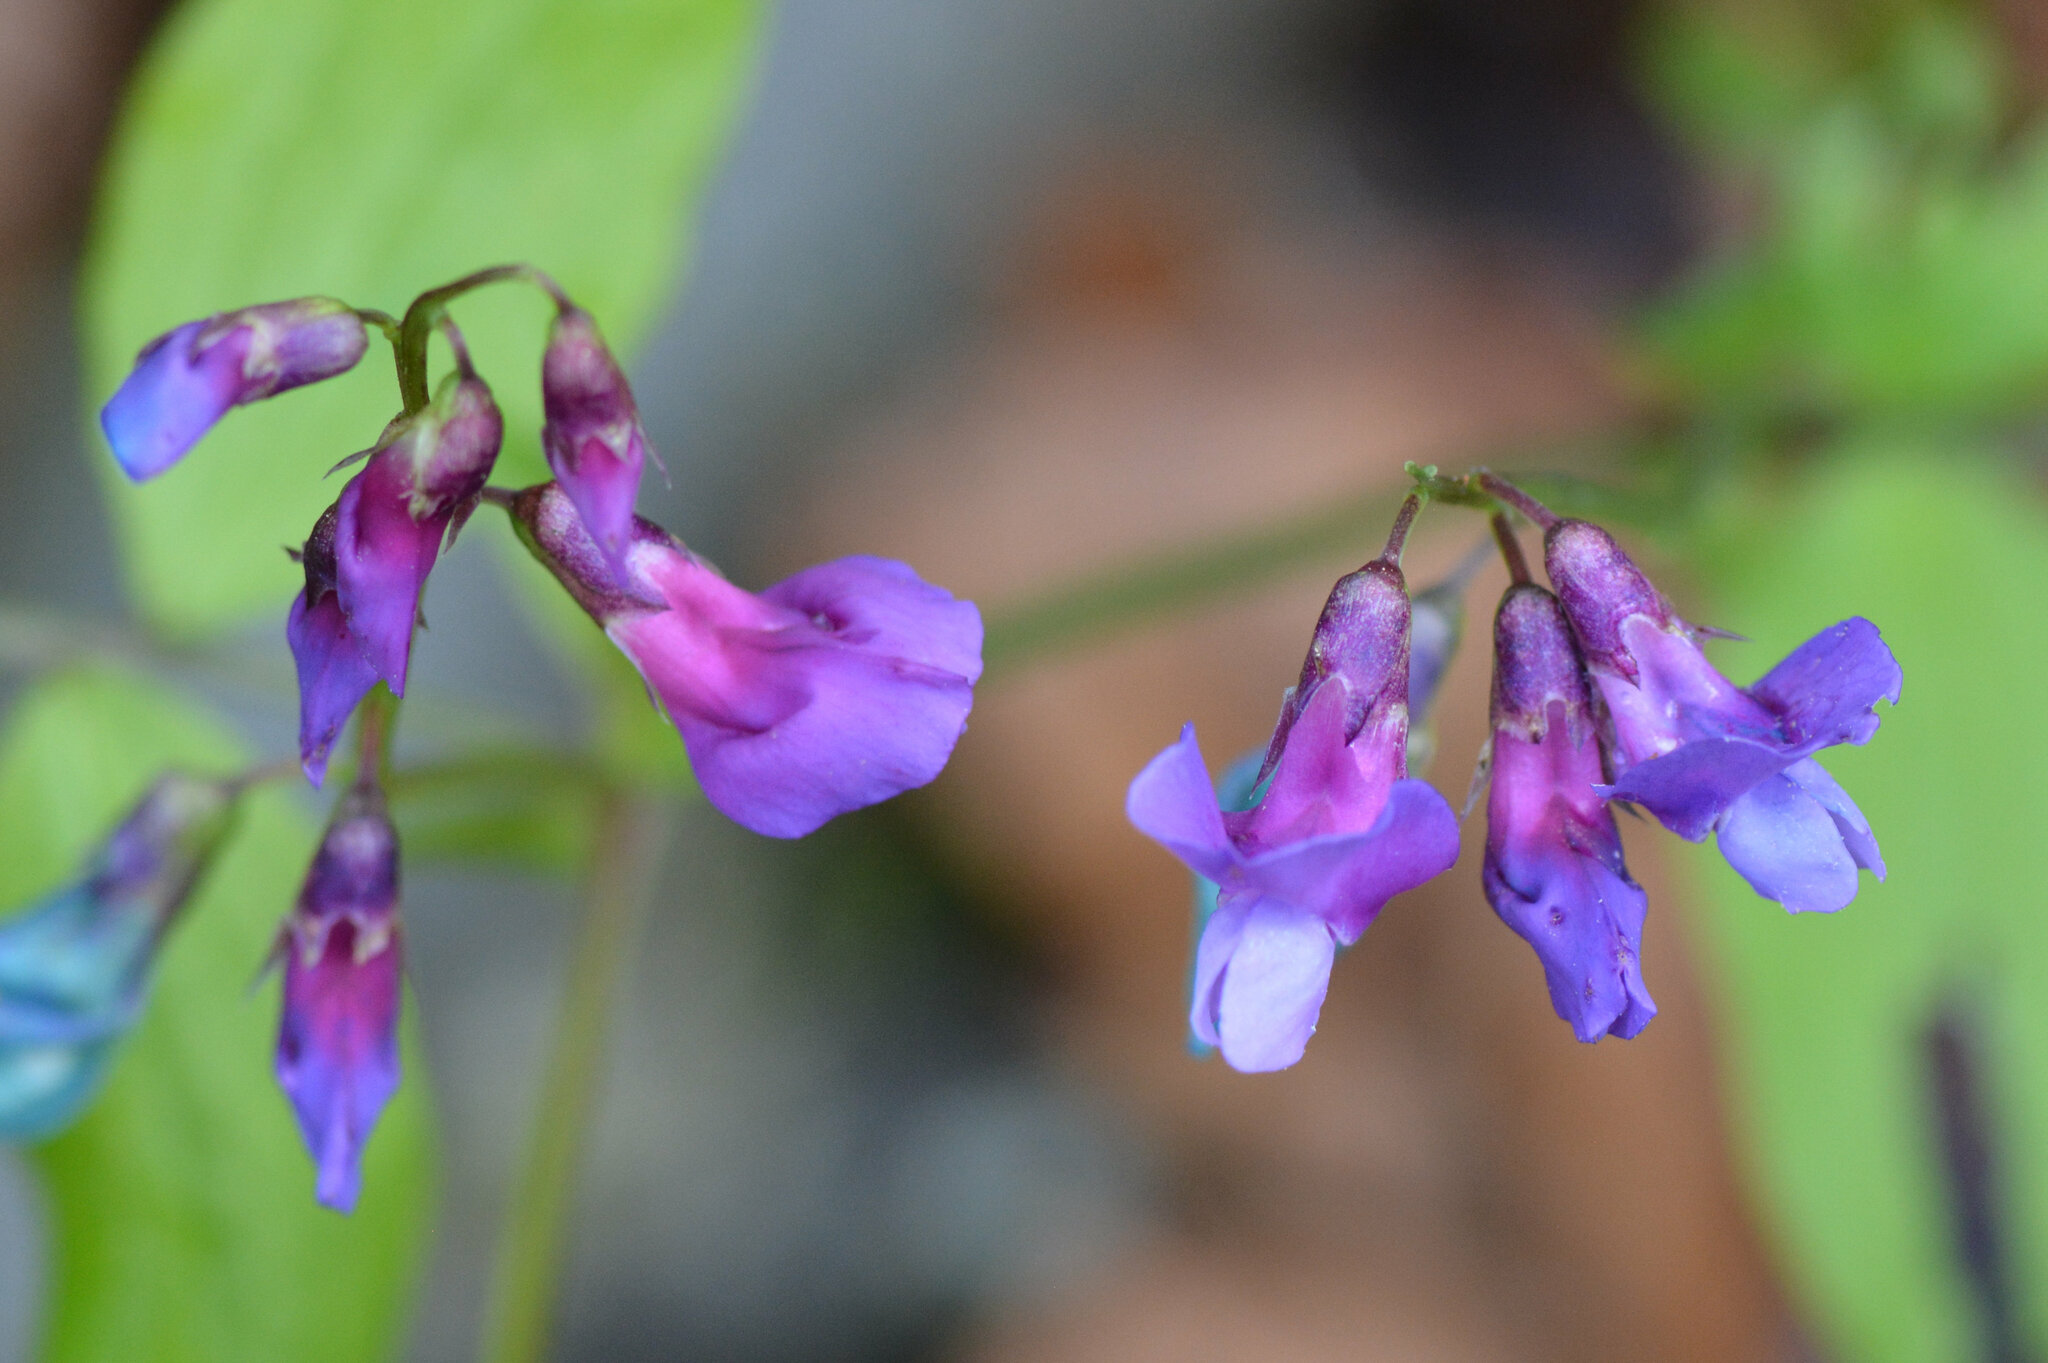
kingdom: Plantae
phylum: Tracheophyta
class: Magnoliopsida
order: Fabales
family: Fabaceae
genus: Lathyrus
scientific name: Lathyrus vernus
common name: Spring pea
